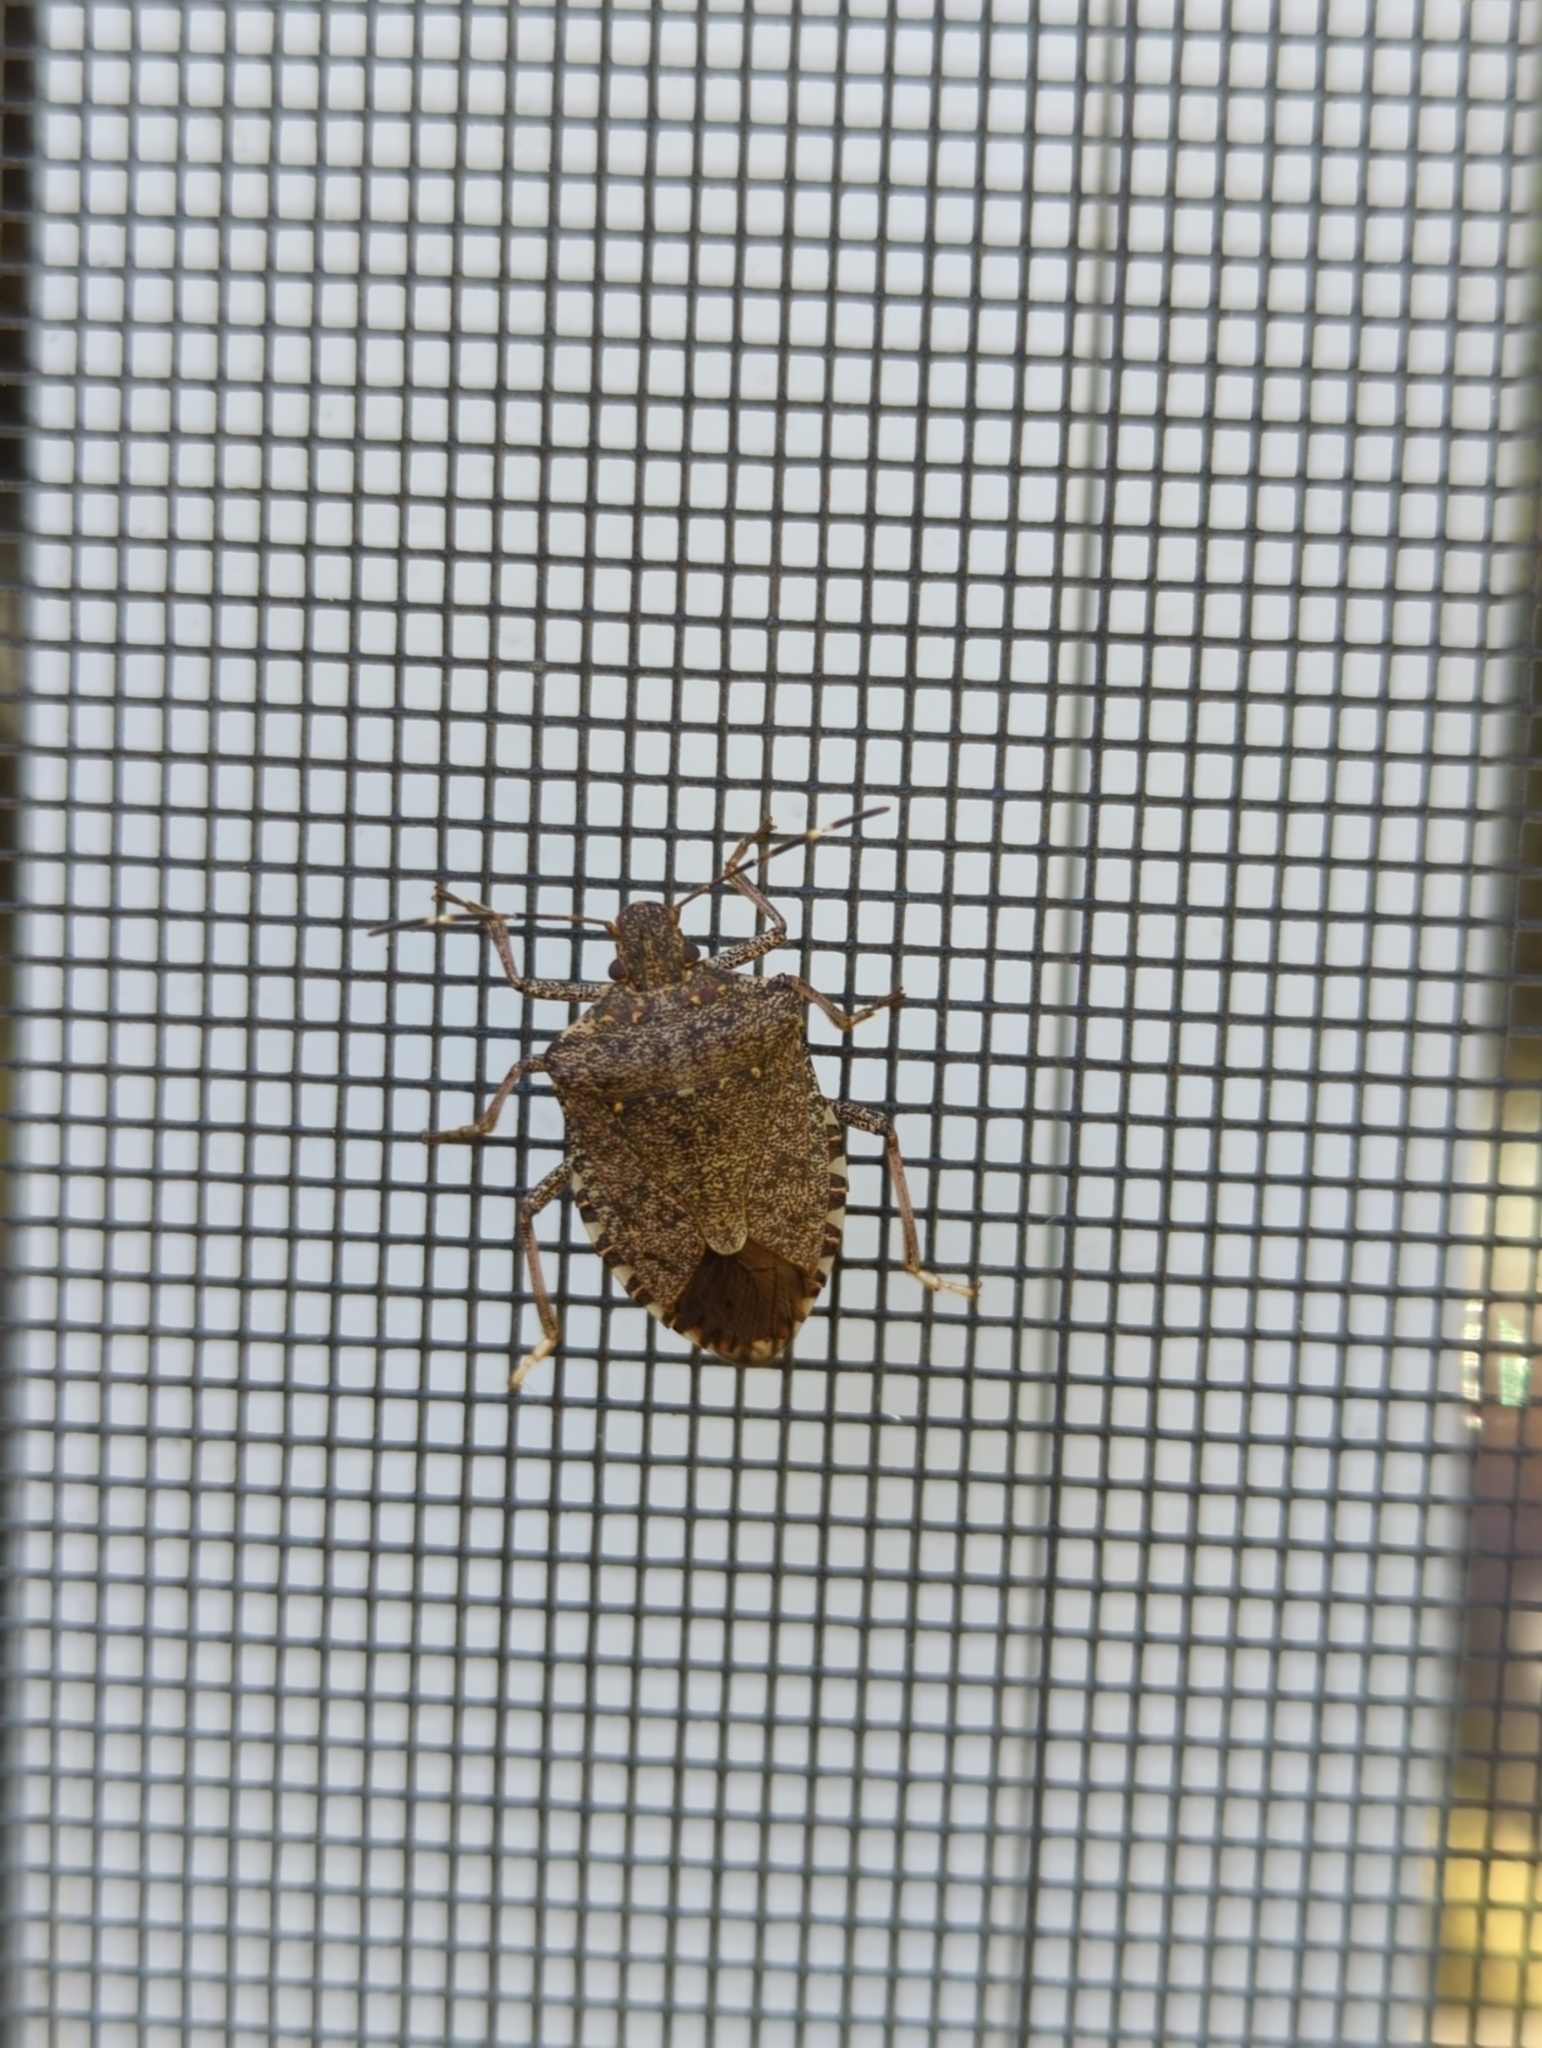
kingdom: Animalia
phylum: Arthropoda
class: Insecta
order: Hemiptera
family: Pentatomidae
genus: Halyomorpha
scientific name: Halyomorpha halys
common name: Brown marmorated stink bug
